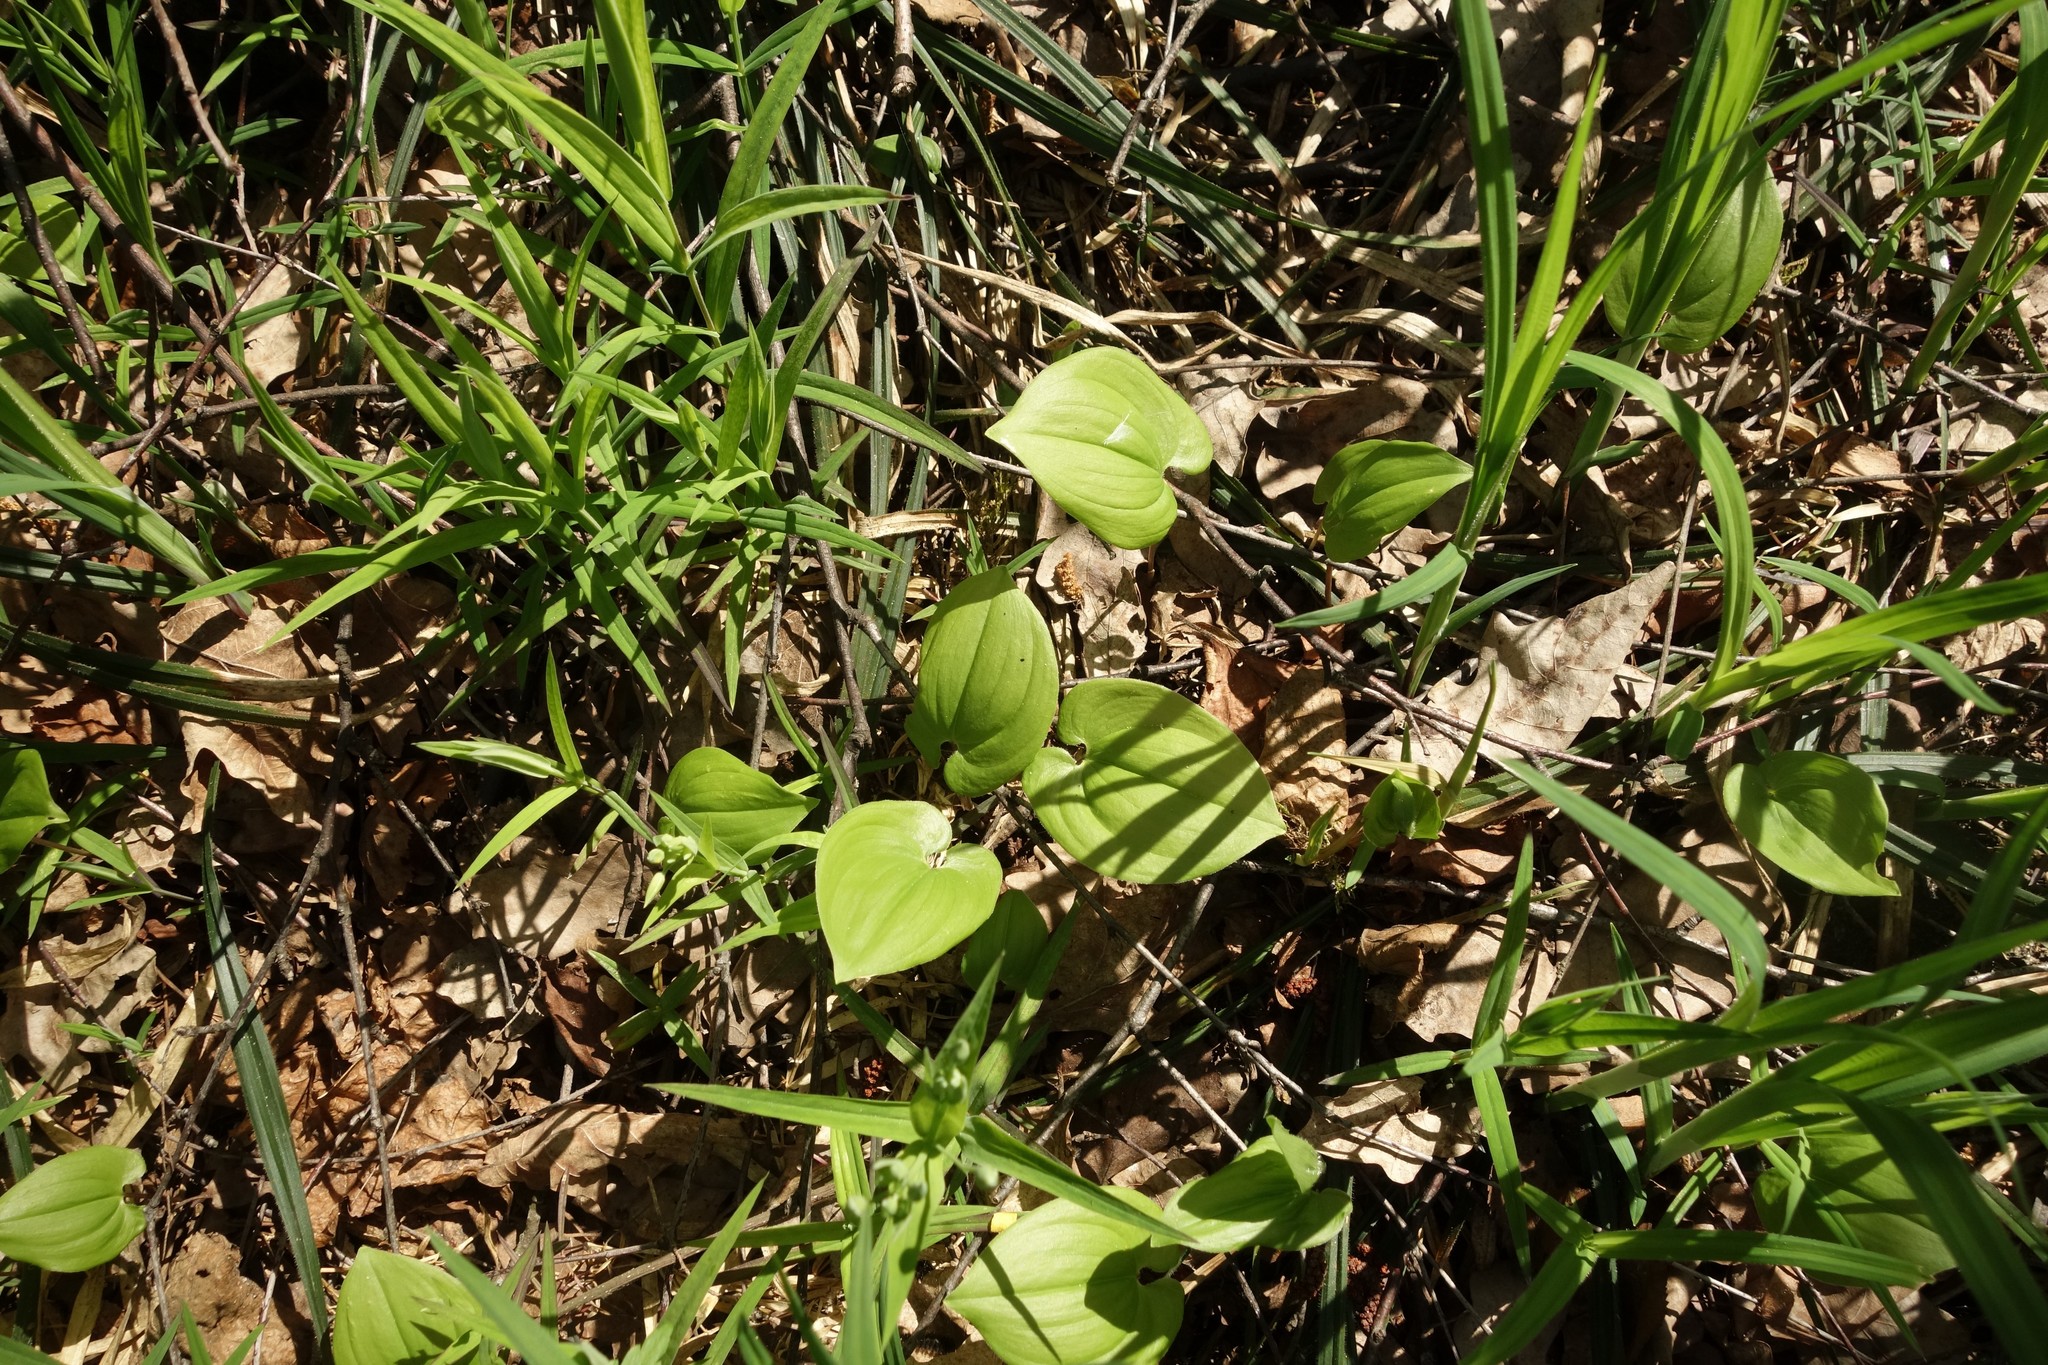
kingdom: Plantae
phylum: Tracheophyta
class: Liliopsida
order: Asparagales
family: Asparagaceae
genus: Maianthemum
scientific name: Maianthemum bifolium
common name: May lily
